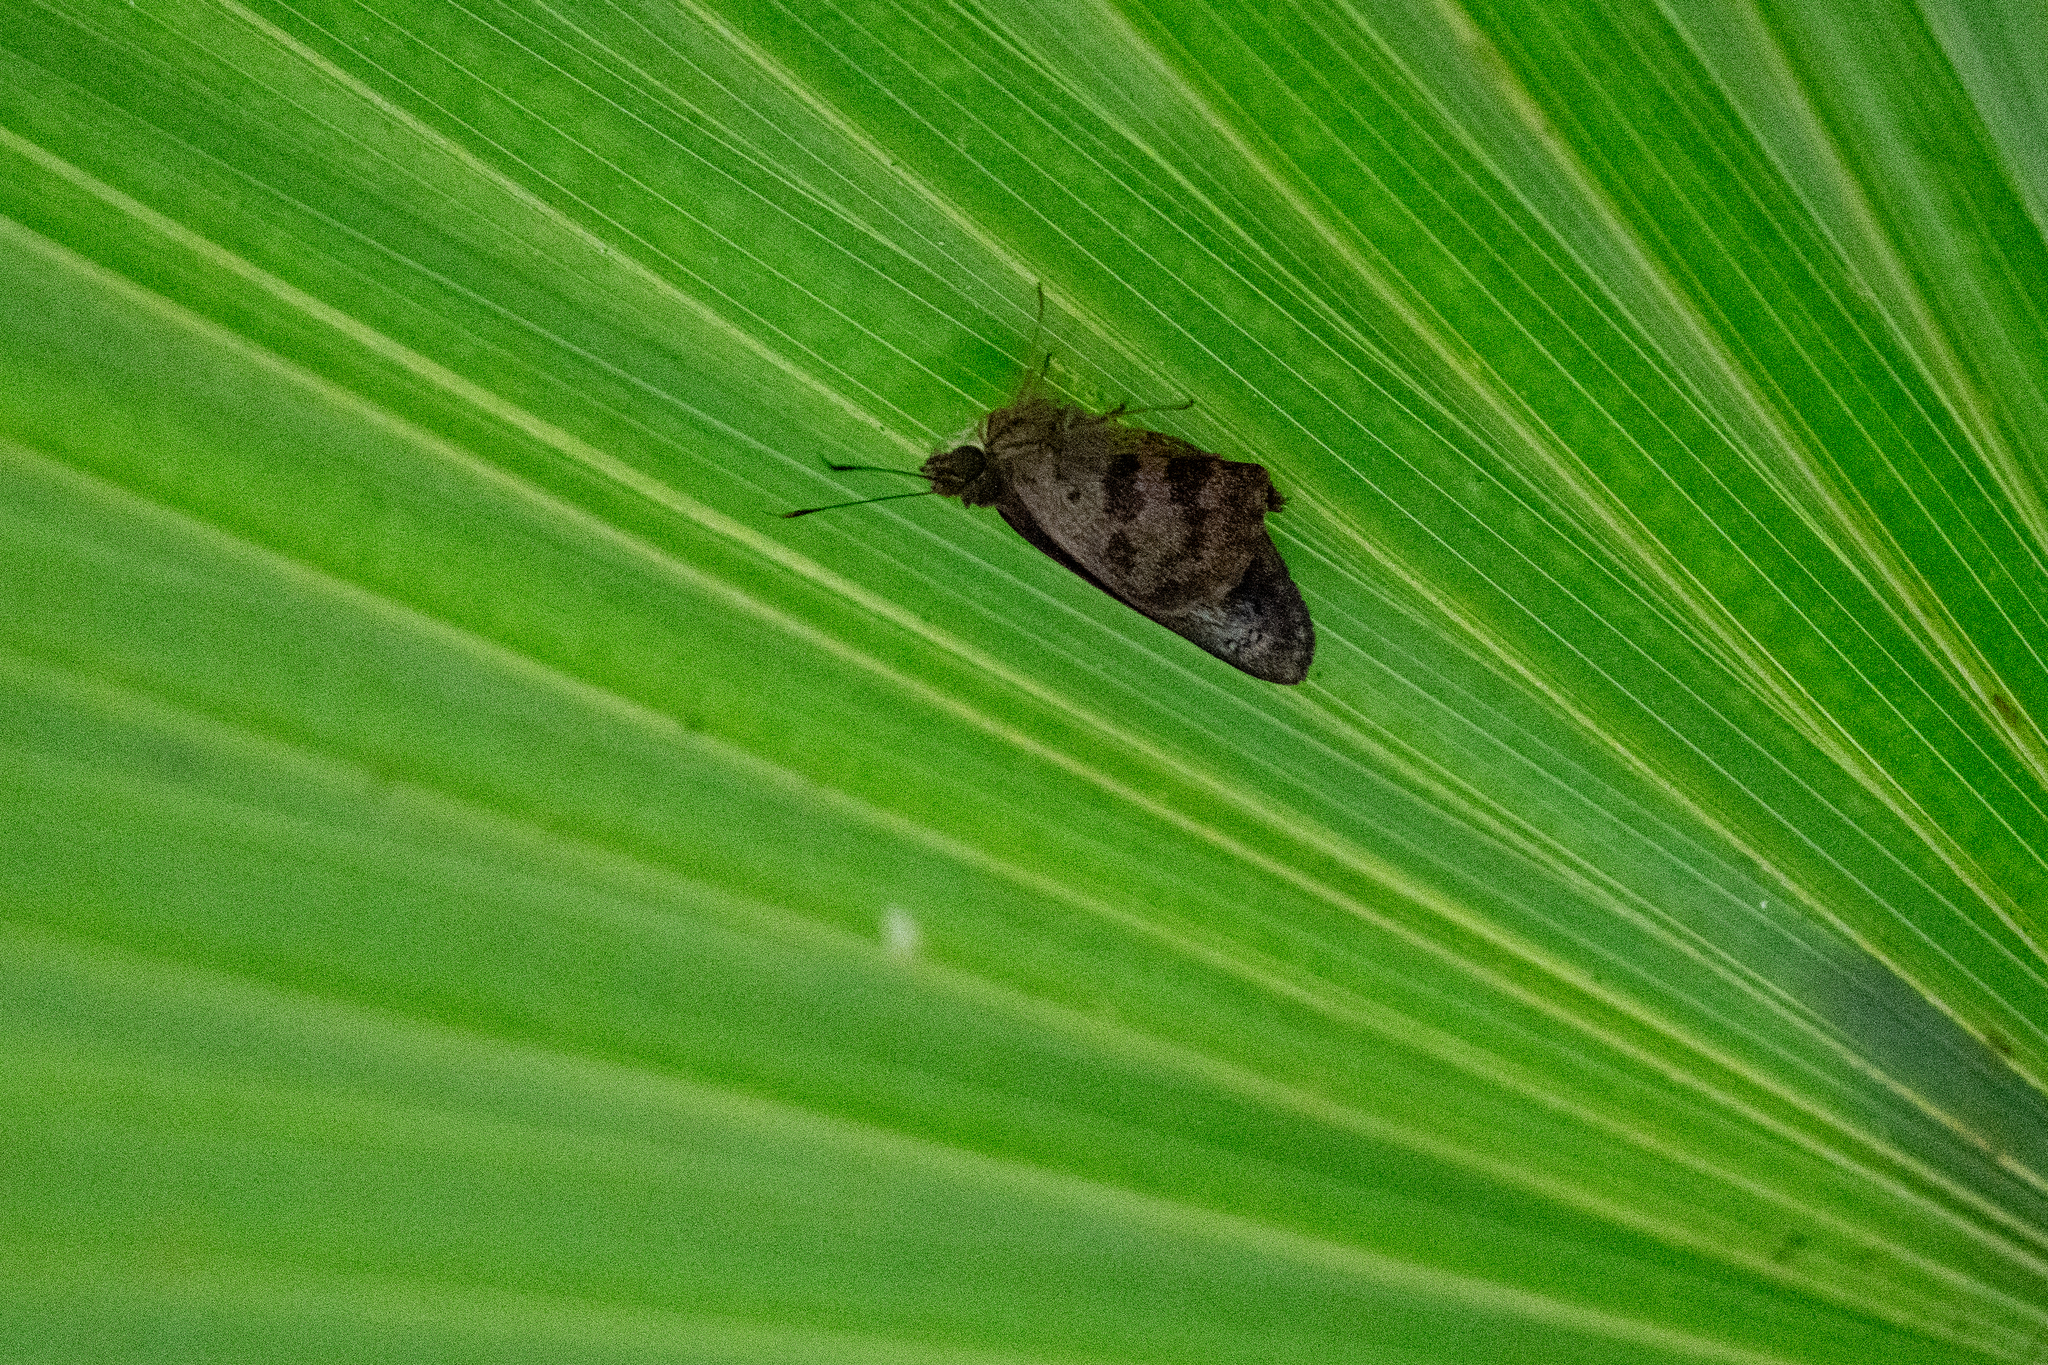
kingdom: Animalia
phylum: Arthropoda
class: Insecta
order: Lepidoptera
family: Hesperiidae
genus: Polygonus
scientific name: Polygonus leo
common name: Hammoch skipper
